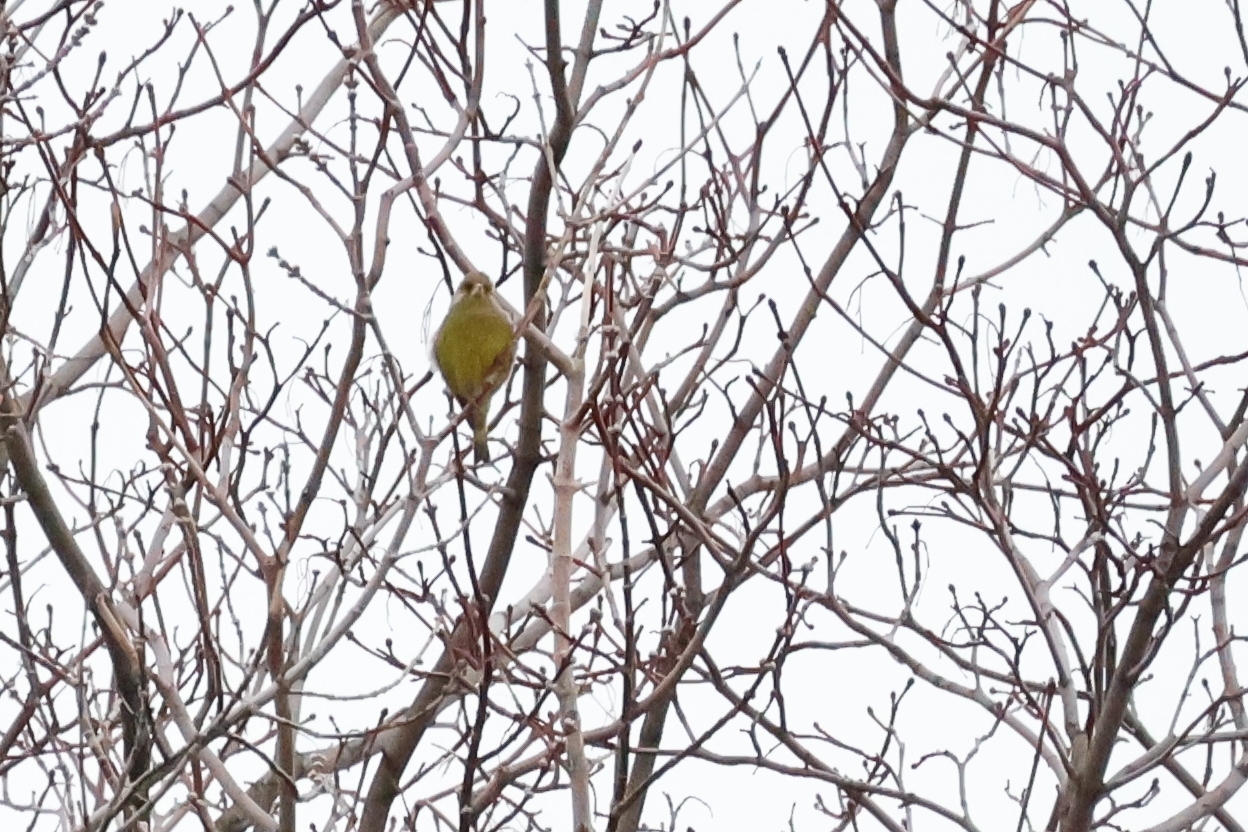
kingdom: Plantae
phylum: Tracheophyta
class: Liliopsida
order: Poales
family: Poaceae
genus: Chloris
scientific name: Chloris chloris
